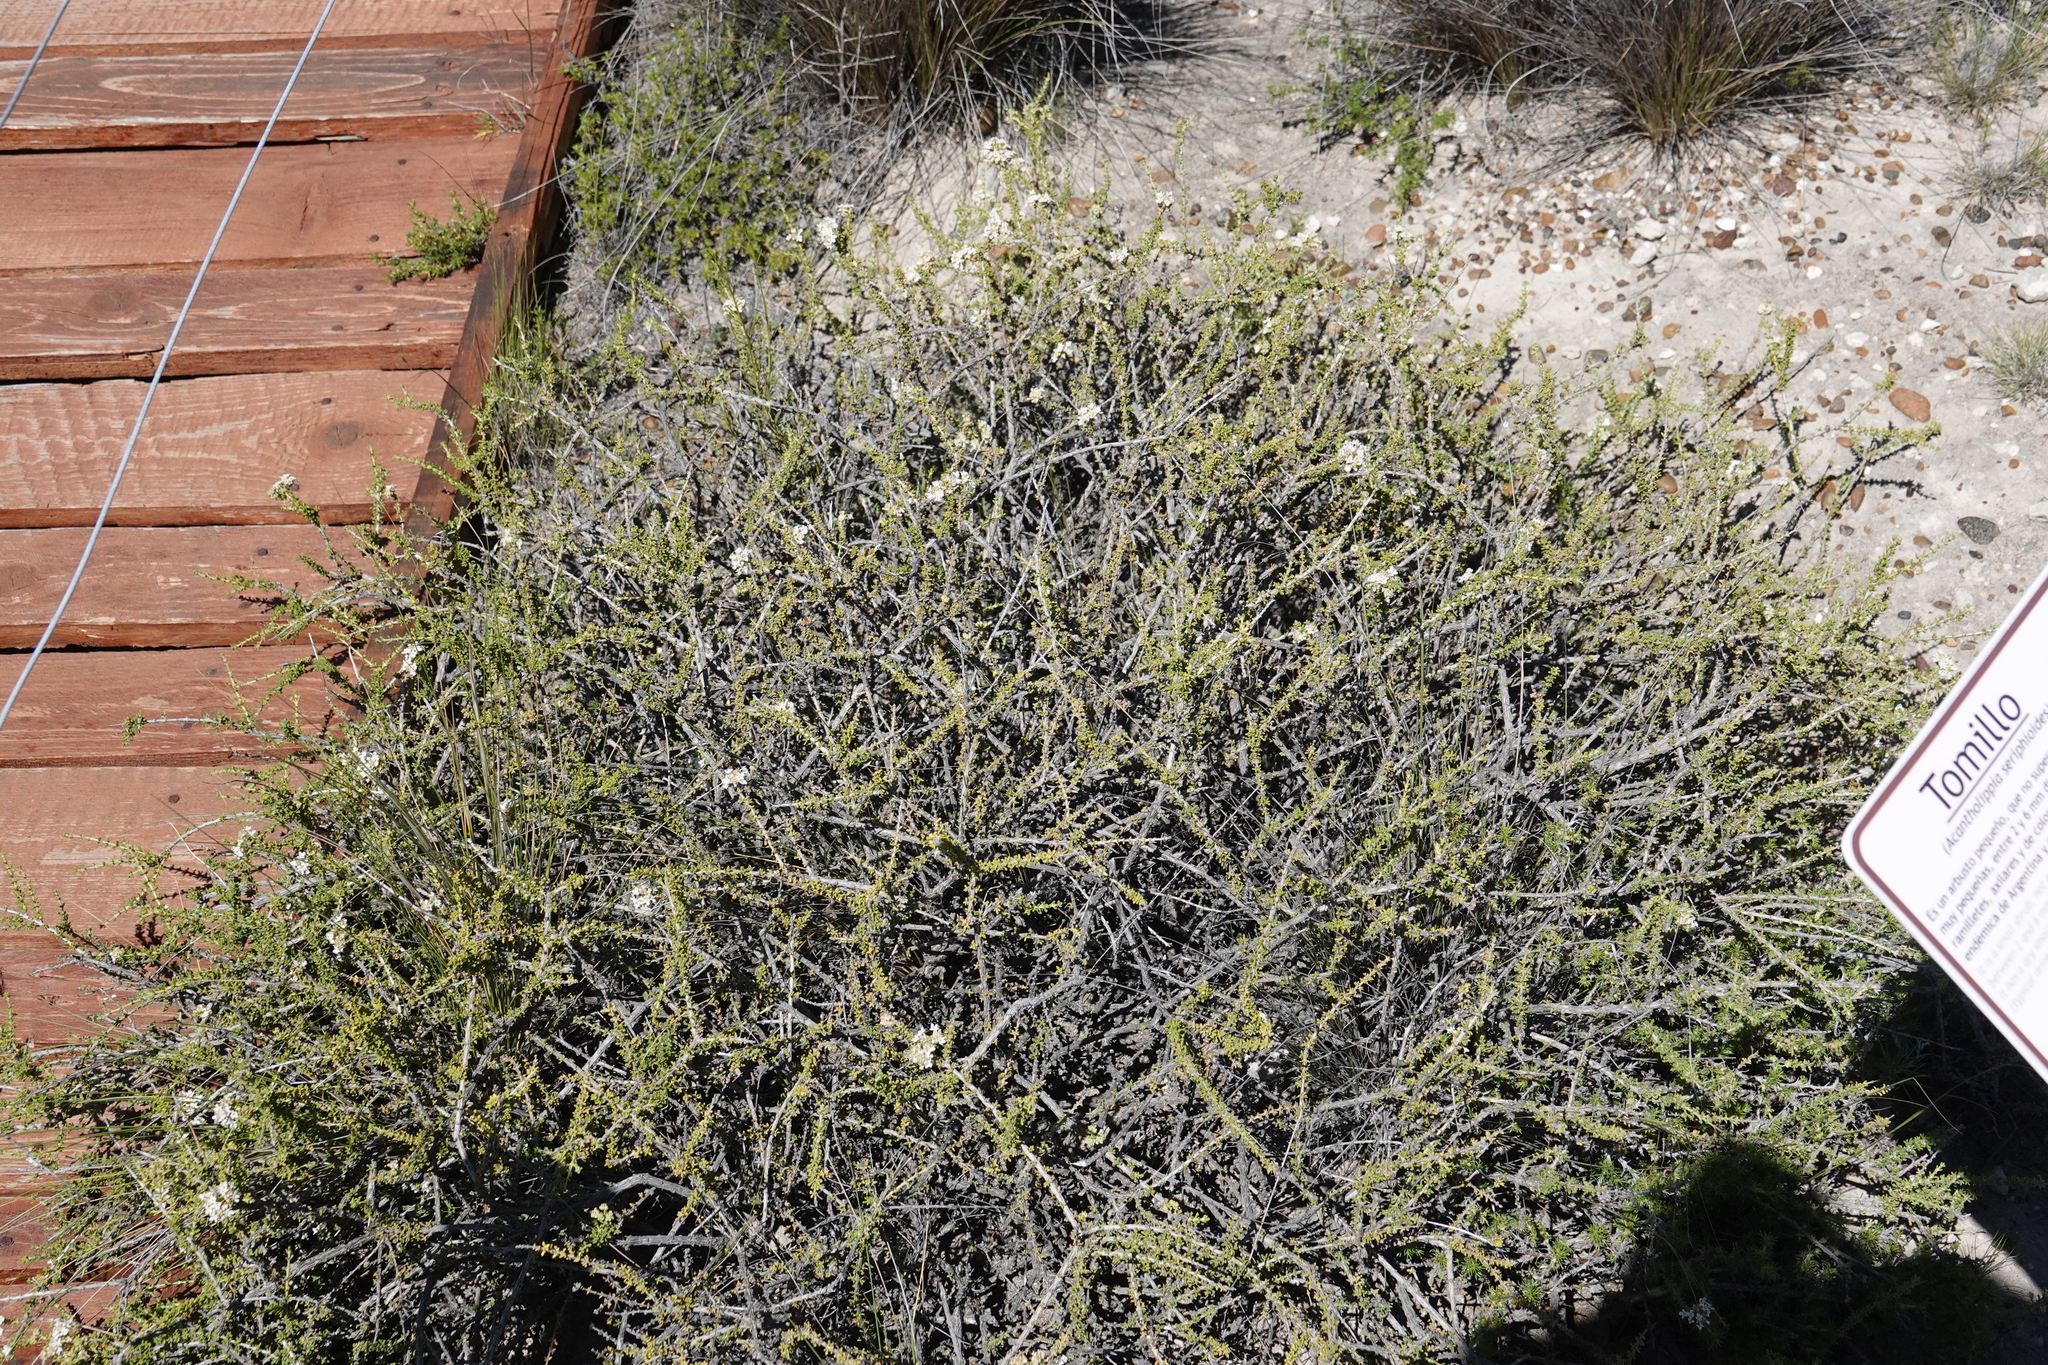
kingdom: Plantae
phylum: Tracheophyta
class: Magnoliopsida
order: Lamiales
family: Verbenaceae
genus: Acantholippia
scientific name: Acantholippia seriphioides
